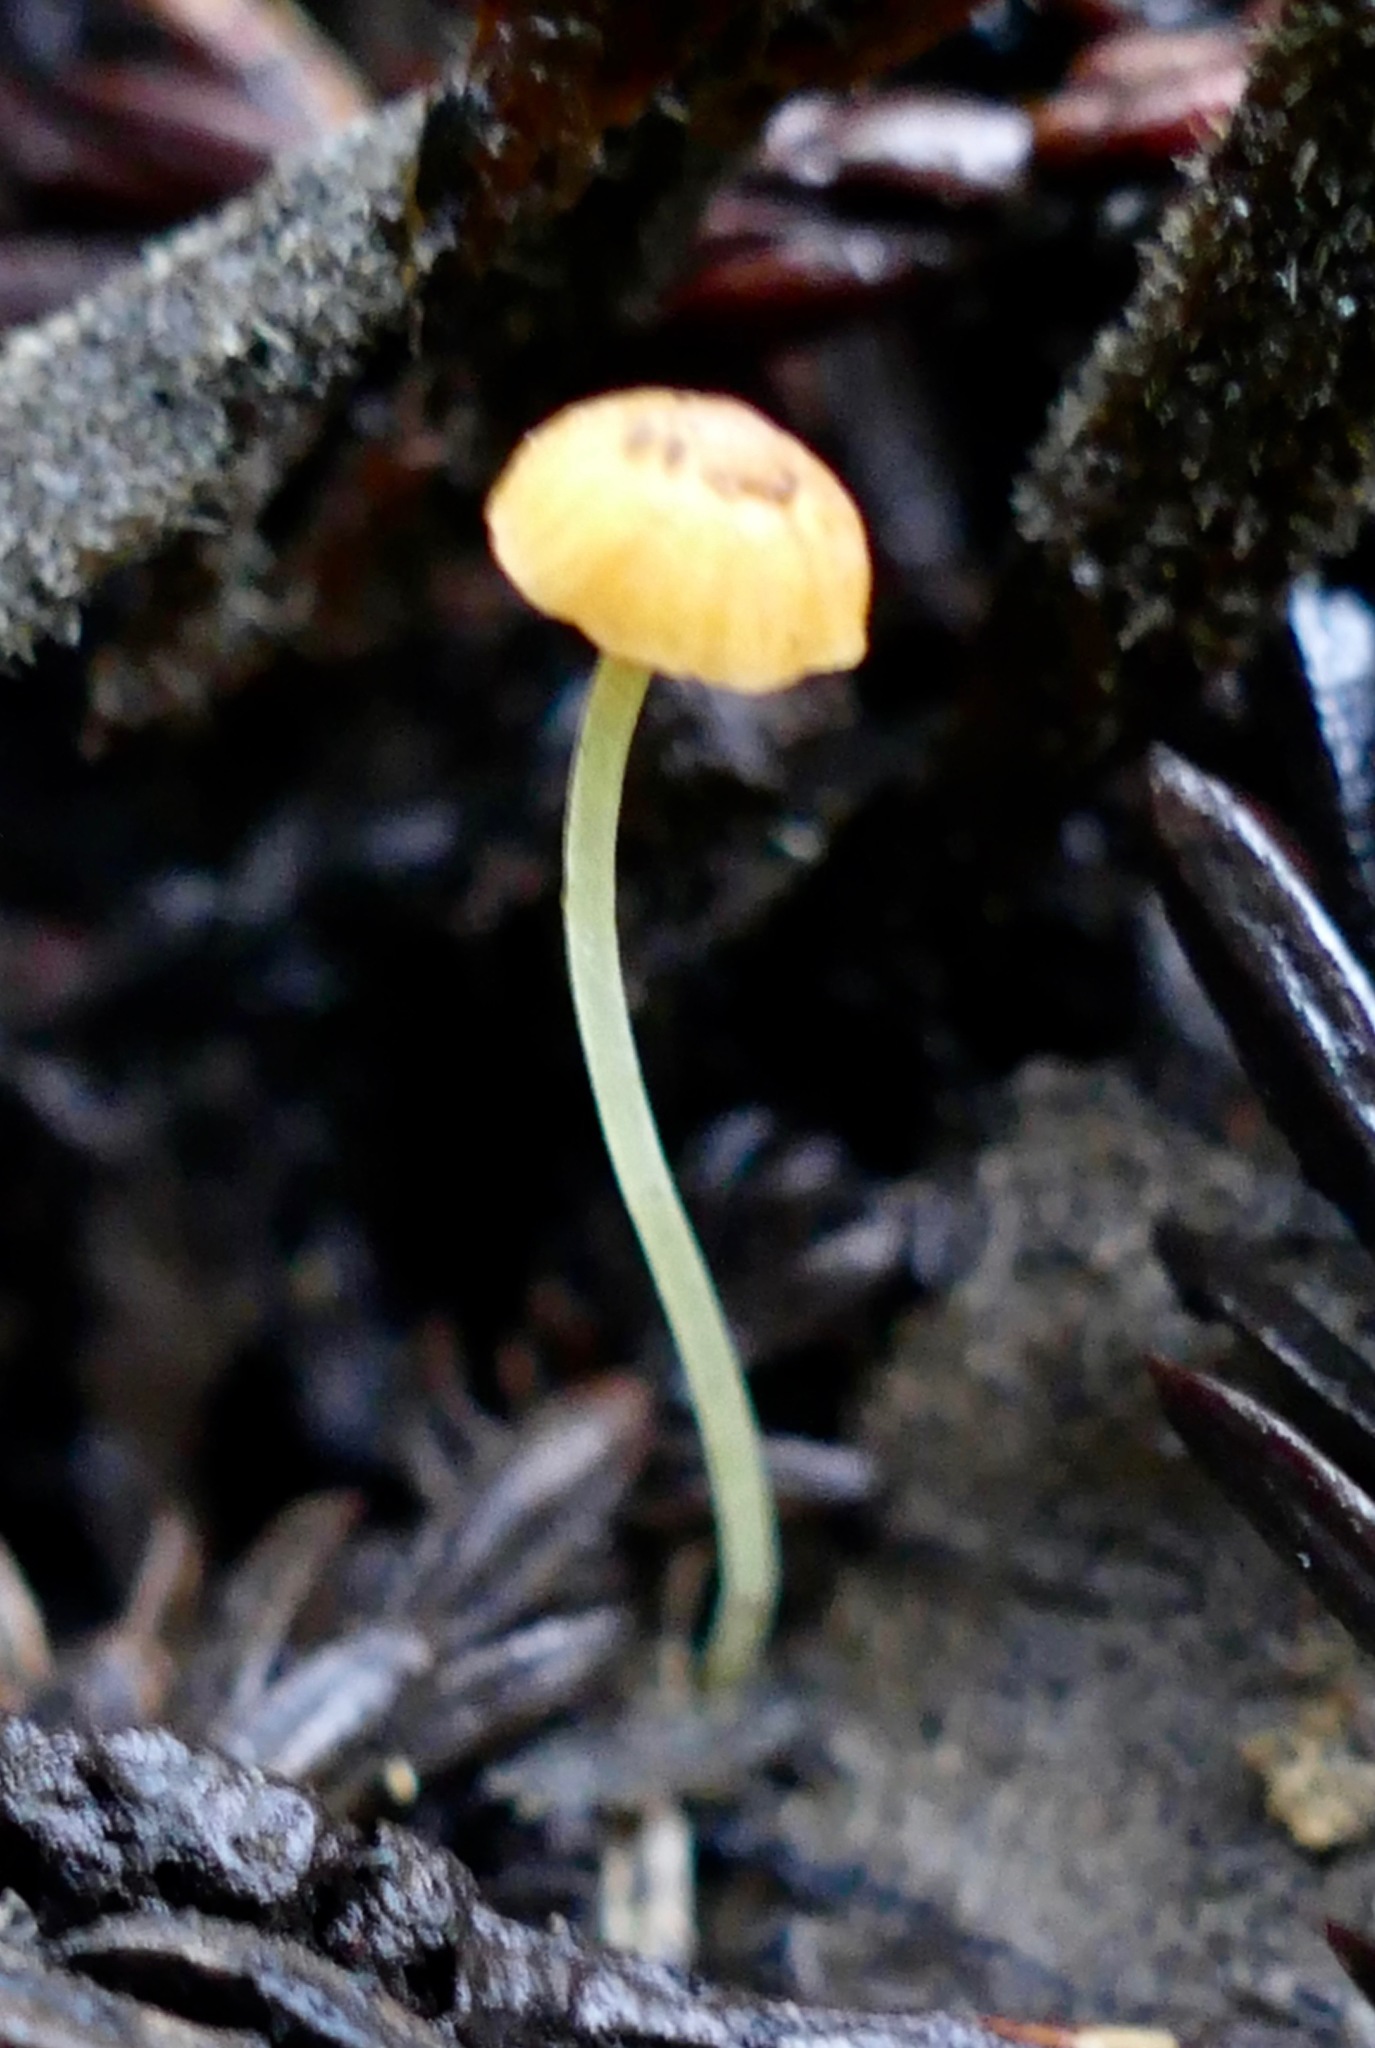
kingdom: Fungi
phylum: Basidiomycota
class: Agaricomycetes
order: Agaricales
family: Mycenaceae
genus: Mycena
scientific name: Mycena oregonensis
